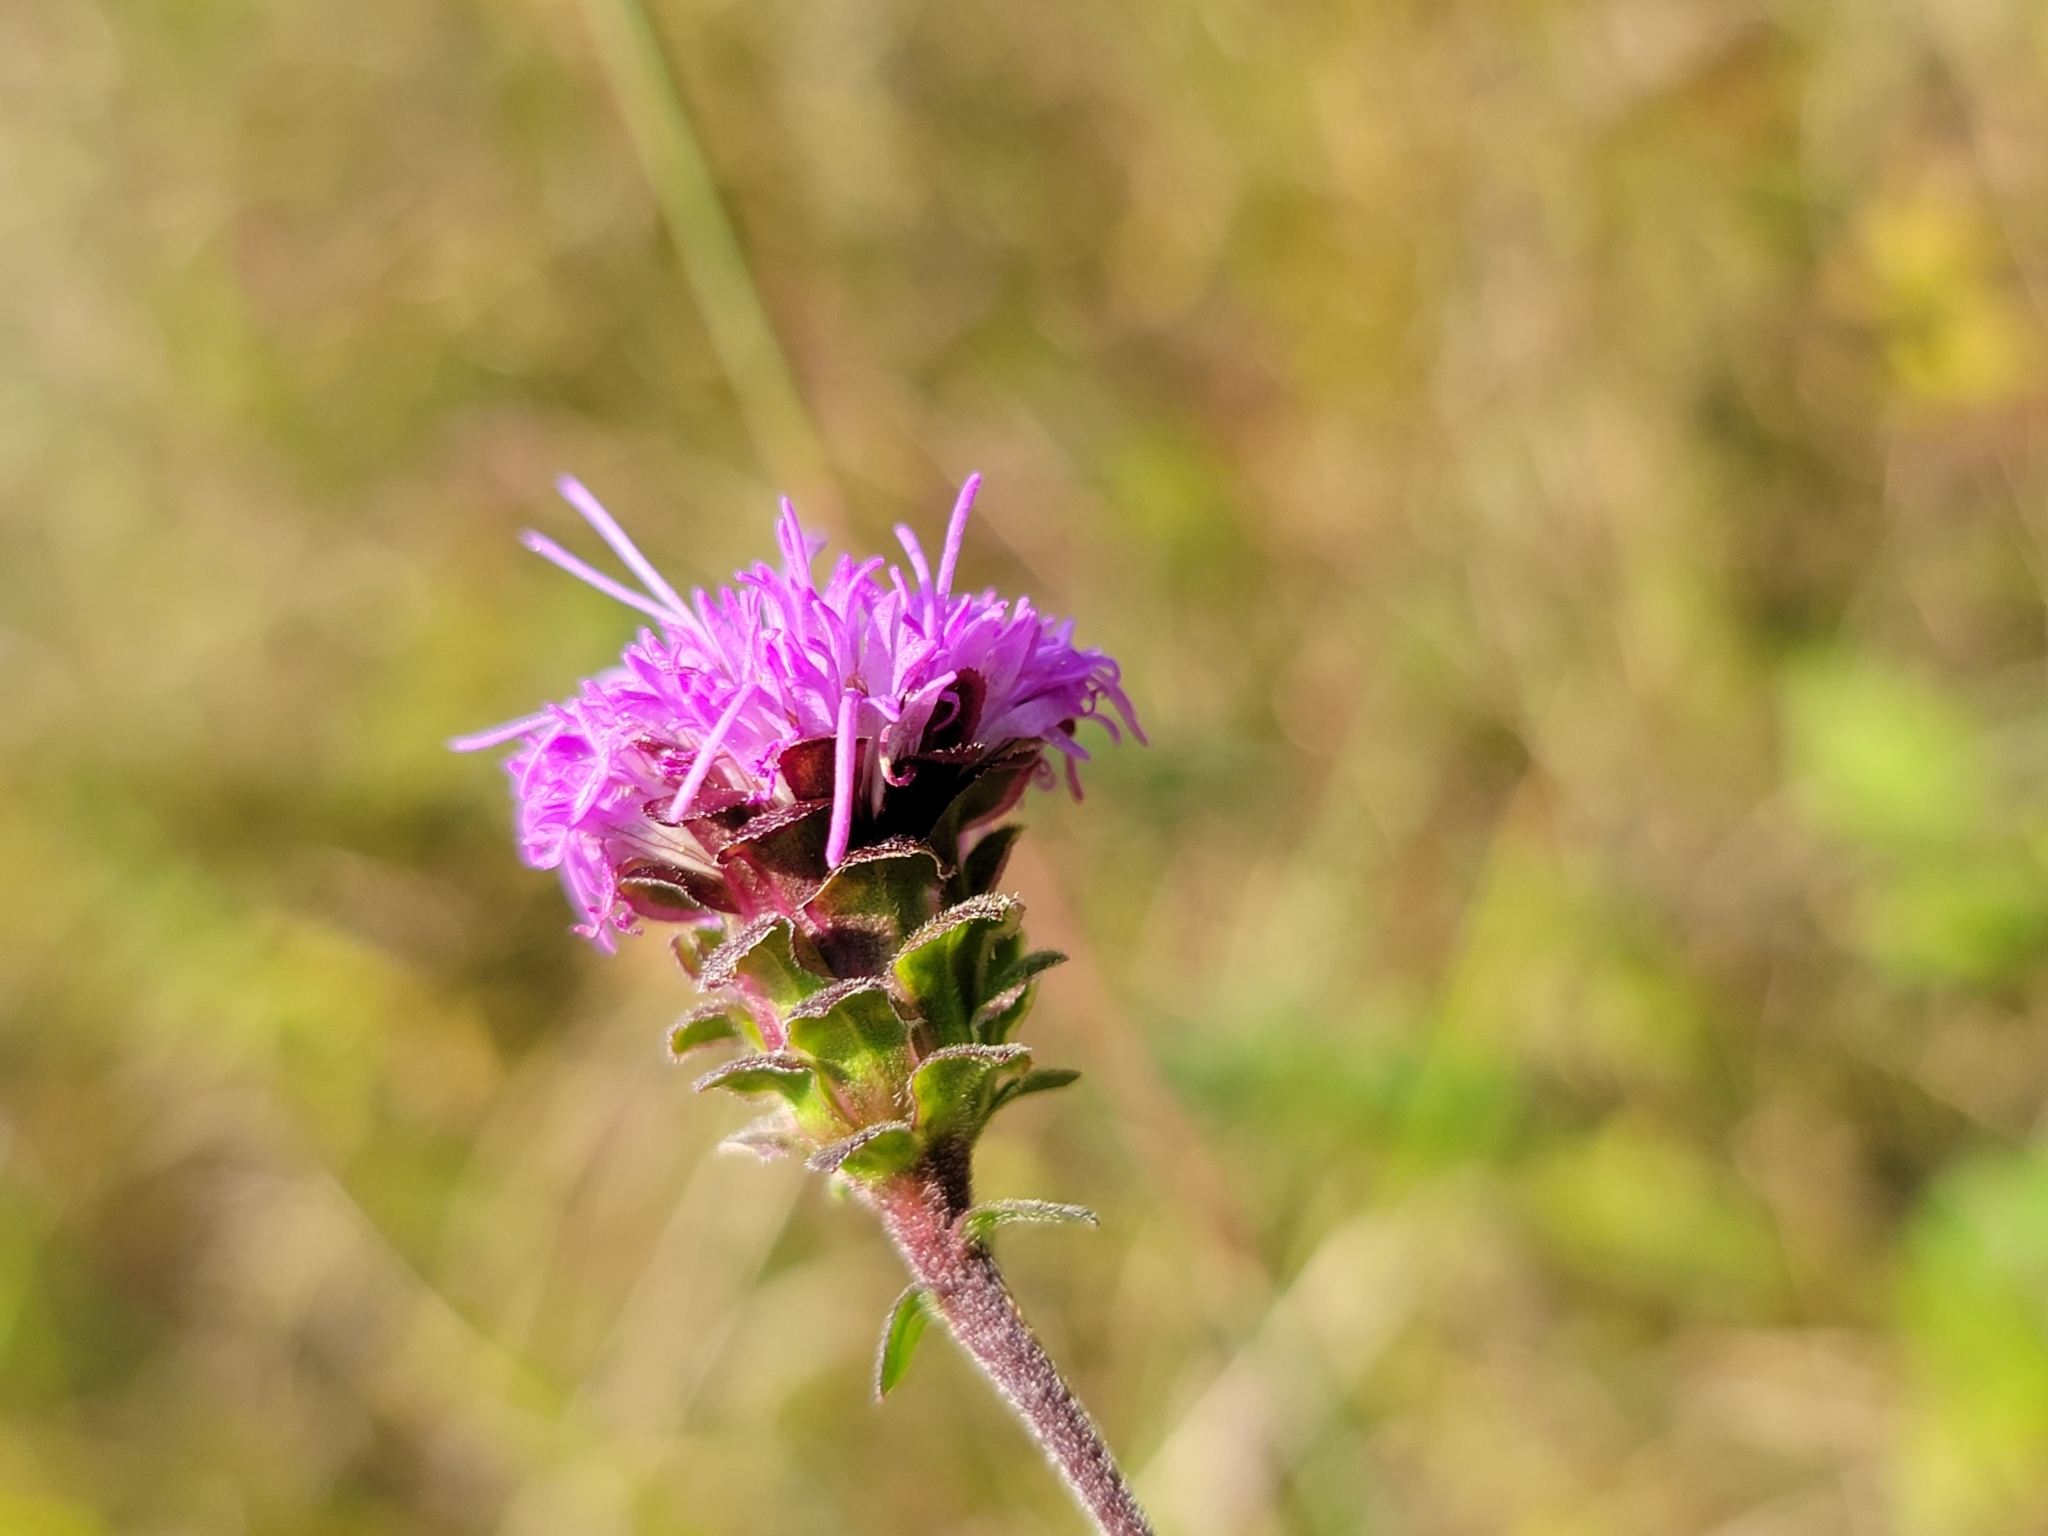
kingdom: Plantae
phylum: Tracheophyta
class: Magnoliopsida
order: Asterales
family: Asteraceae
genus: Liatris
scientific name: Liatris scariosa
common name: Northern gayfeather
